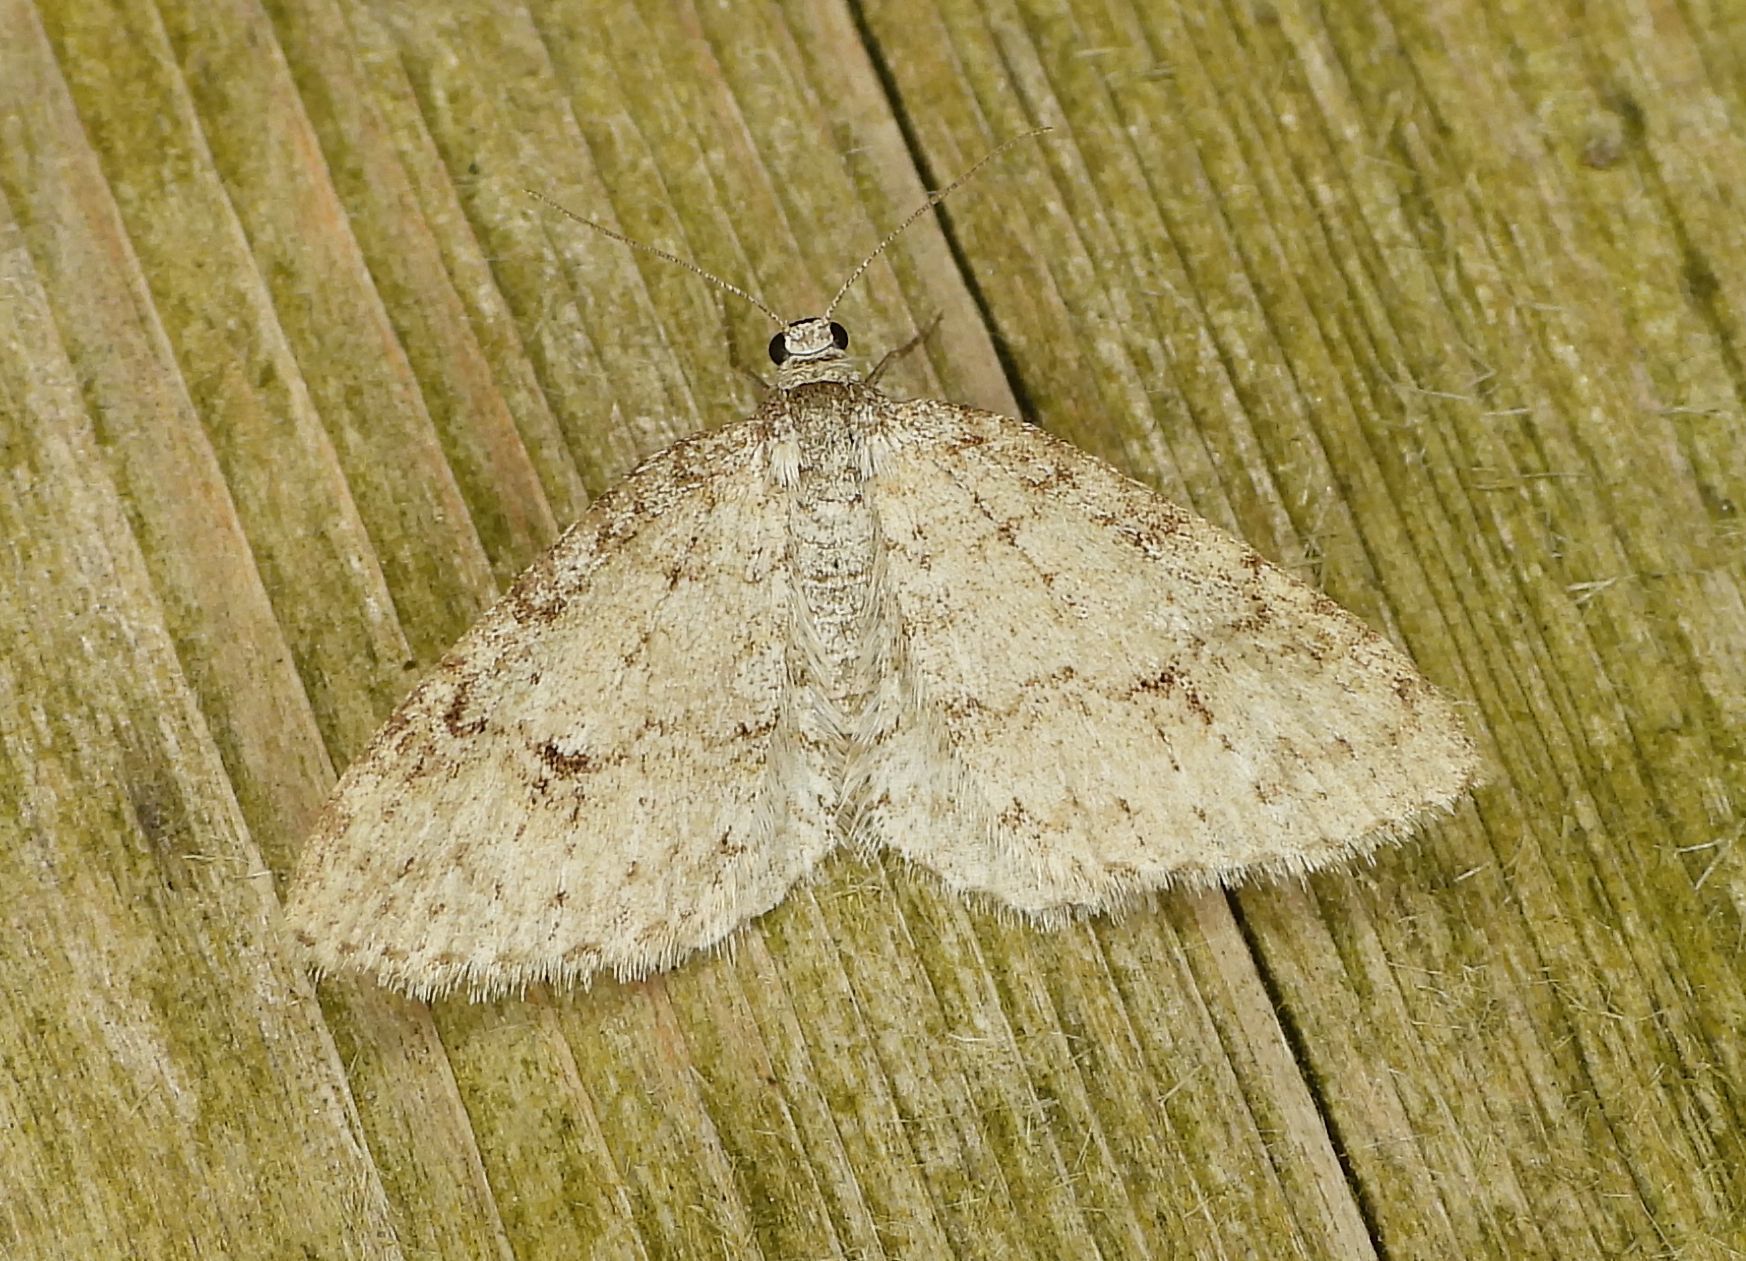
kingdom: Animalia
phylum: Arthropoda
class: Insecta
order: Lepidoptera
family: Geometridae
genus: Venusia
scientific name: Venusia comptaria
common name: Brown-shaded carpet
